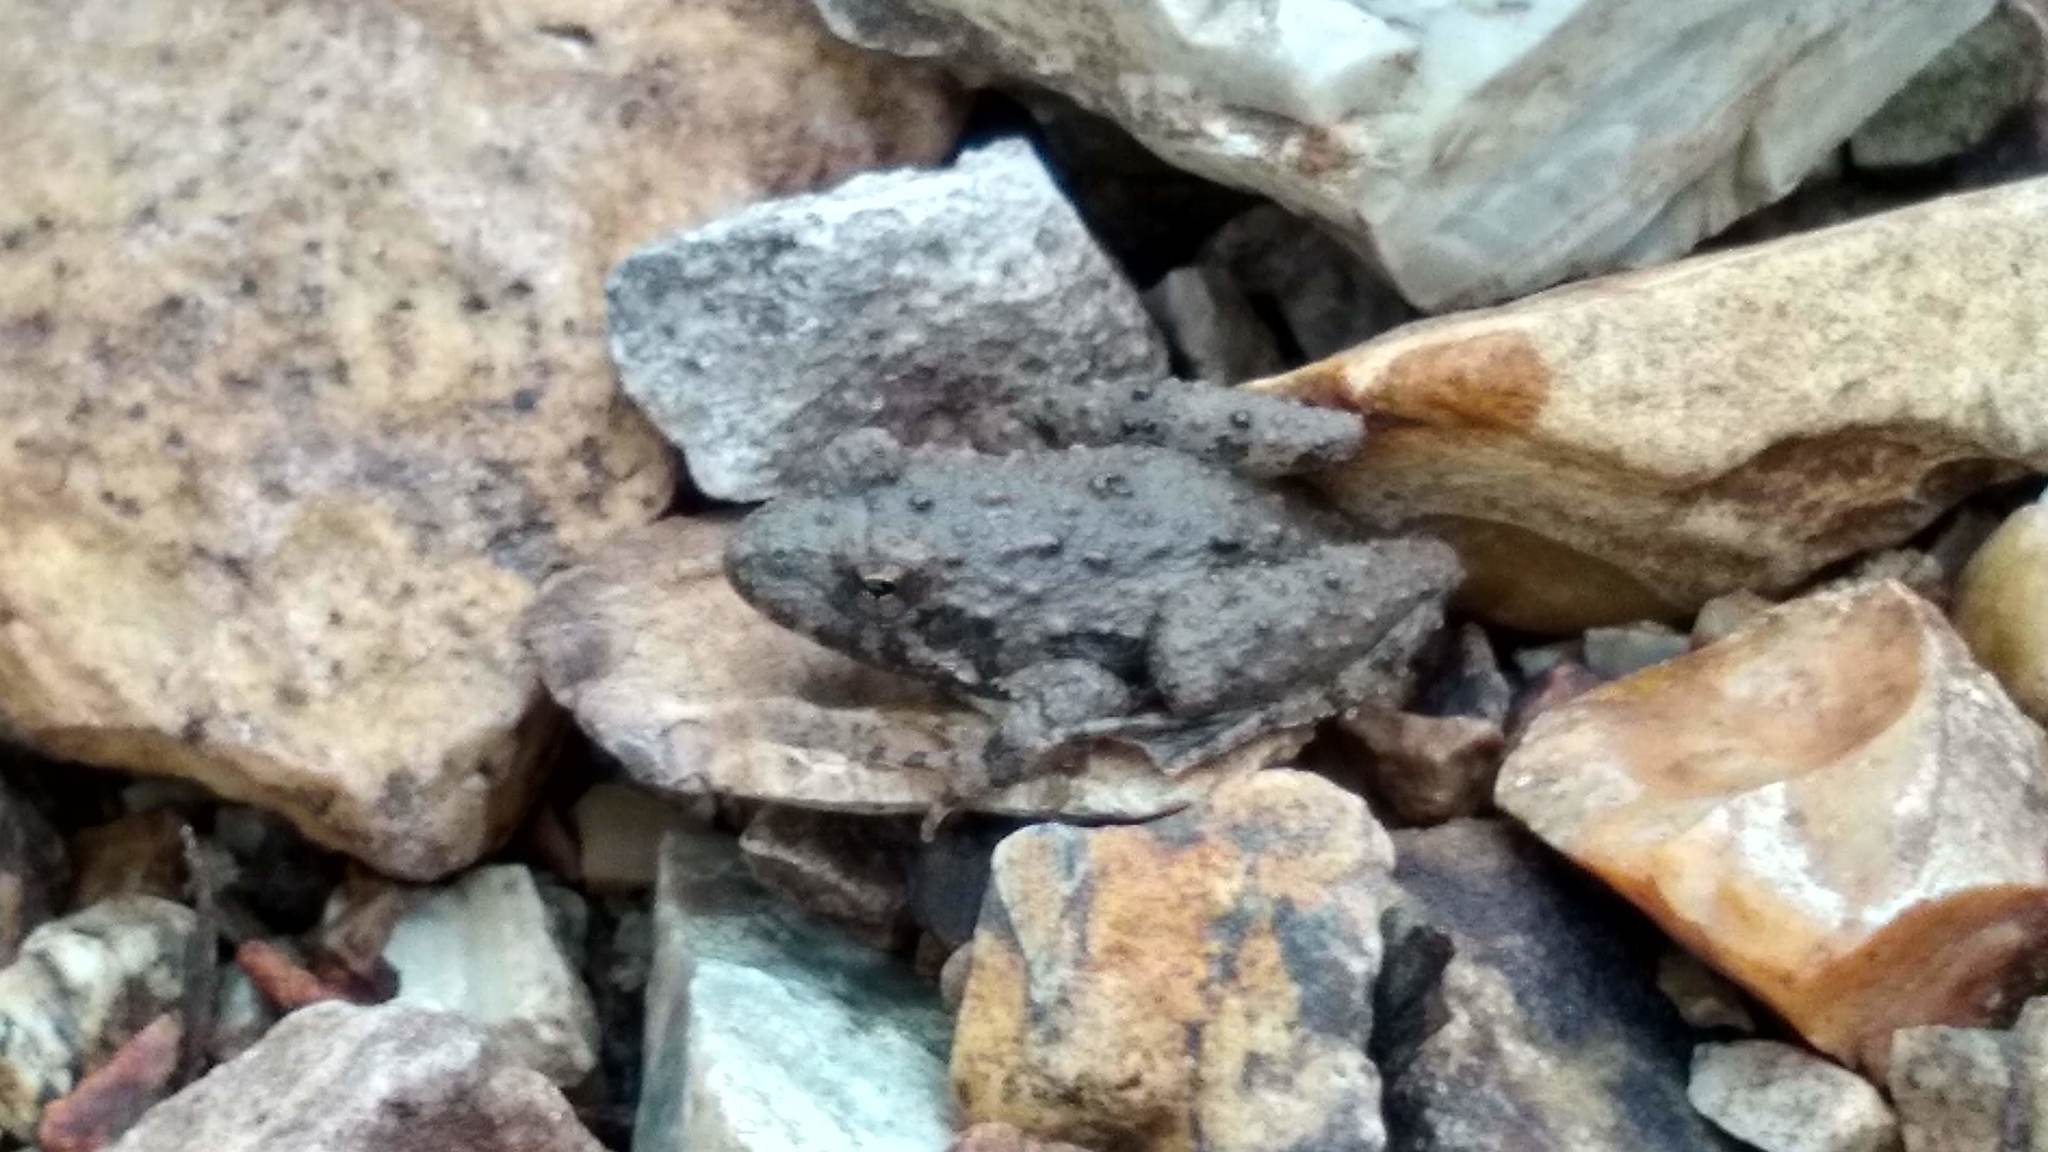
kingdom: Animalia
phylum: Chordata
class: Amphibia
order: Anura
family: Hylidae
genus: Acris
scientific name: Acris blanchardi
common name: Blanchard's cricket frog
